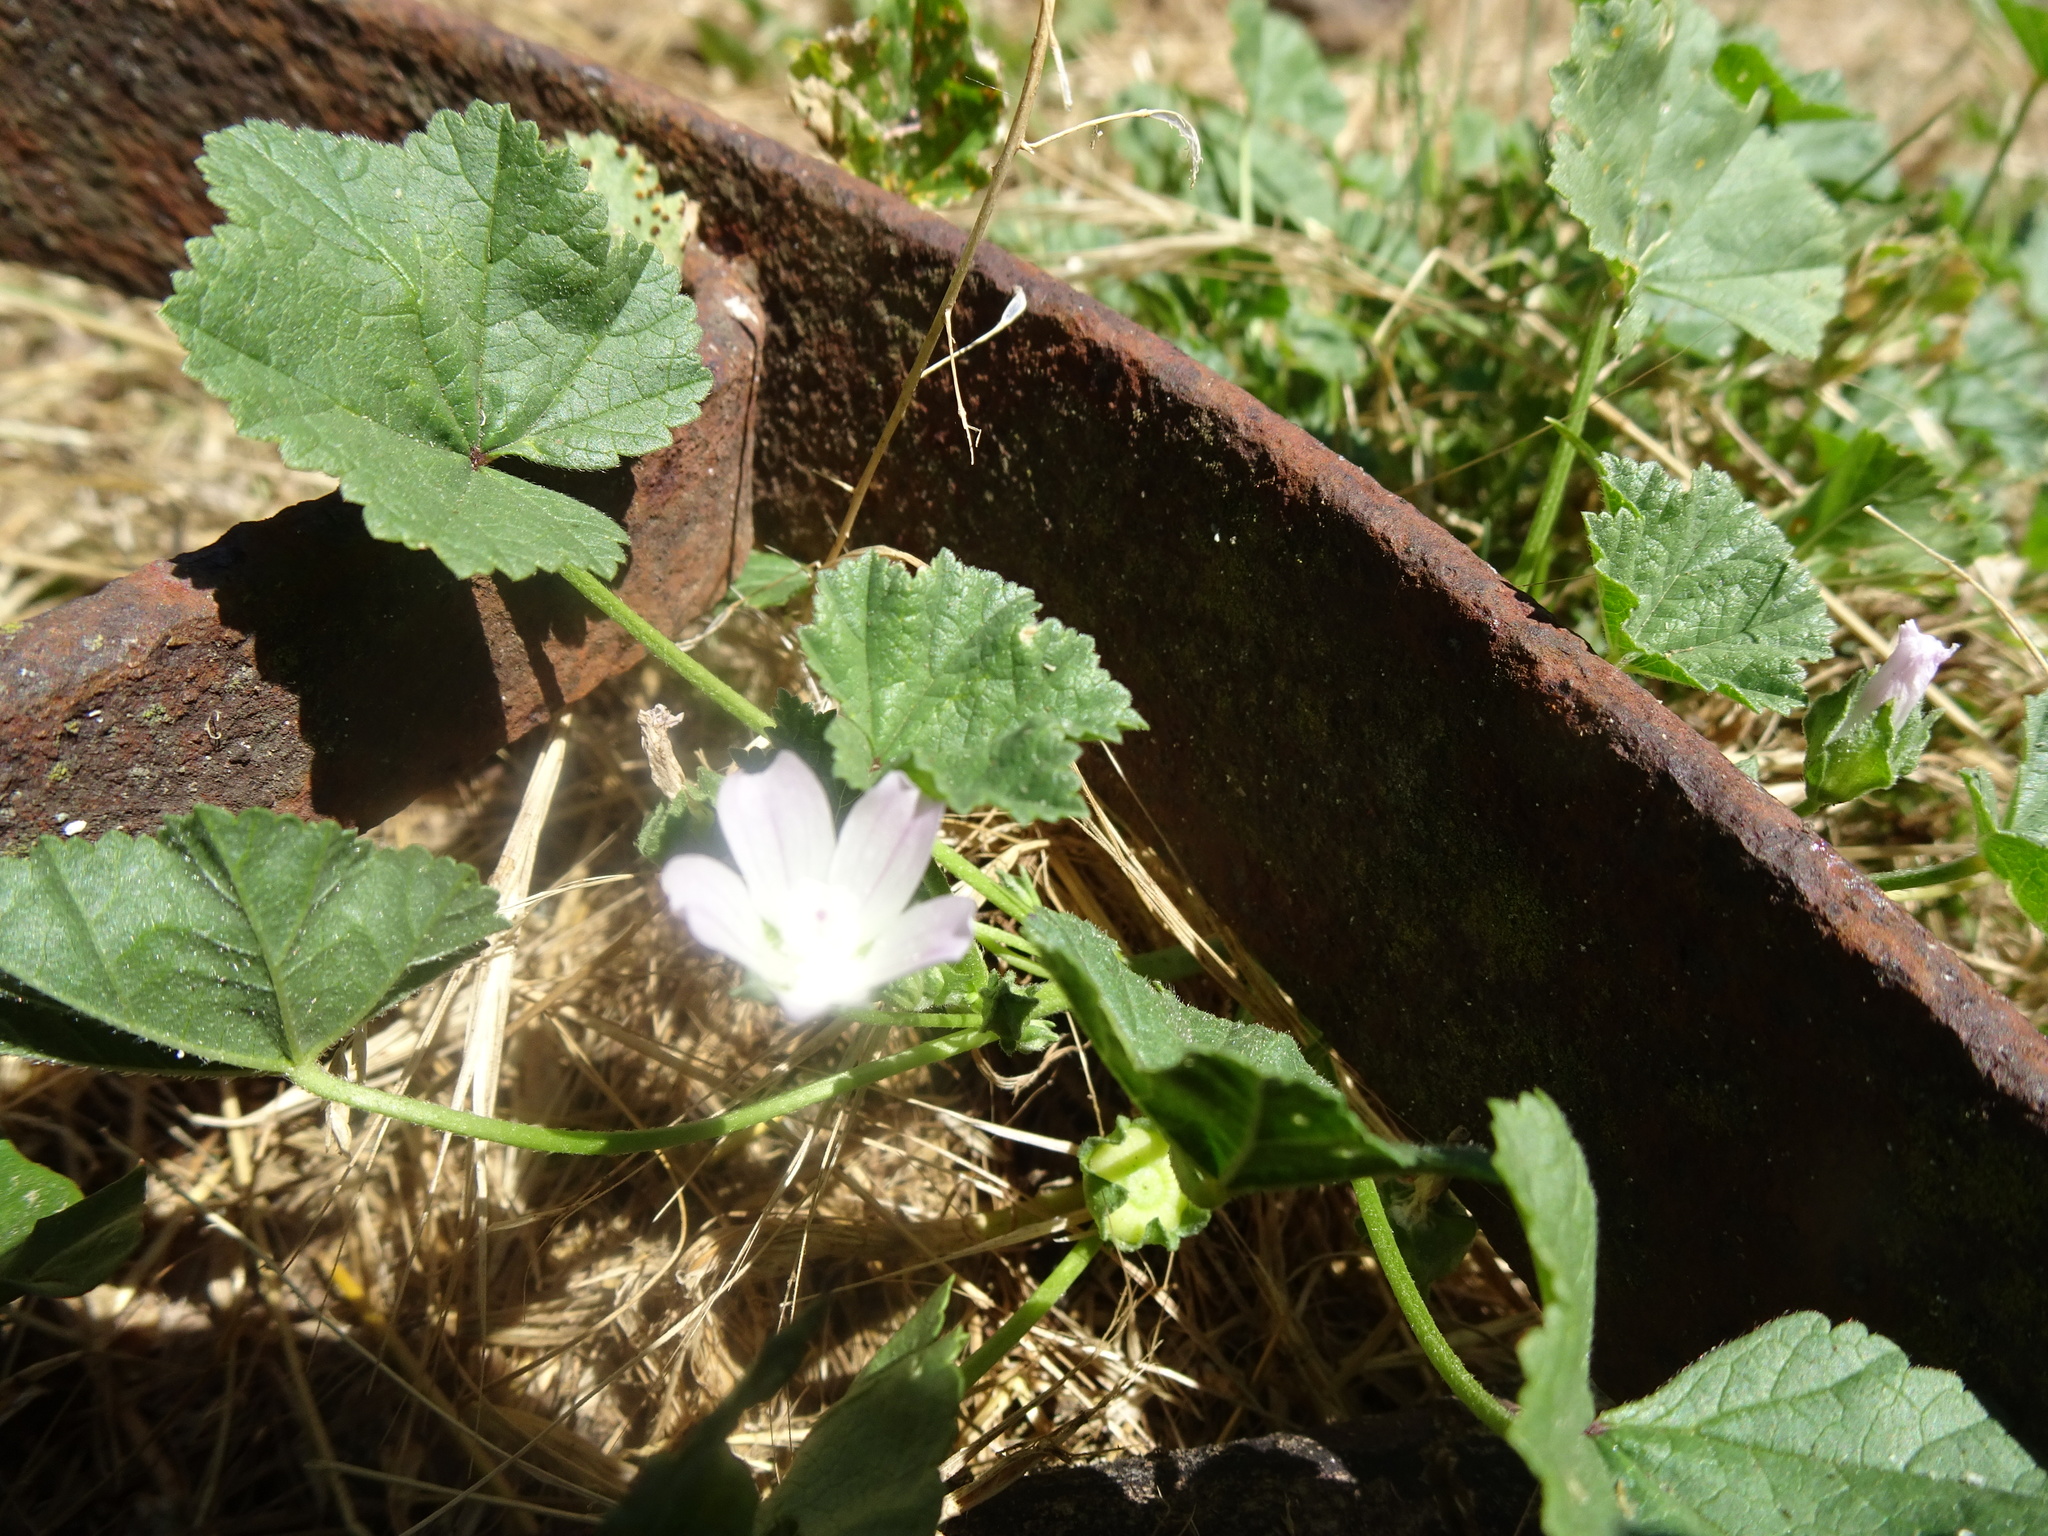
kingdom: Plantae
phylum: Tracheophyta
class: Magnoliopsida
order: Malvales
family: Malvaceae
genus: Malva
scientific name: Malva neglecta
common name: Common mallow
